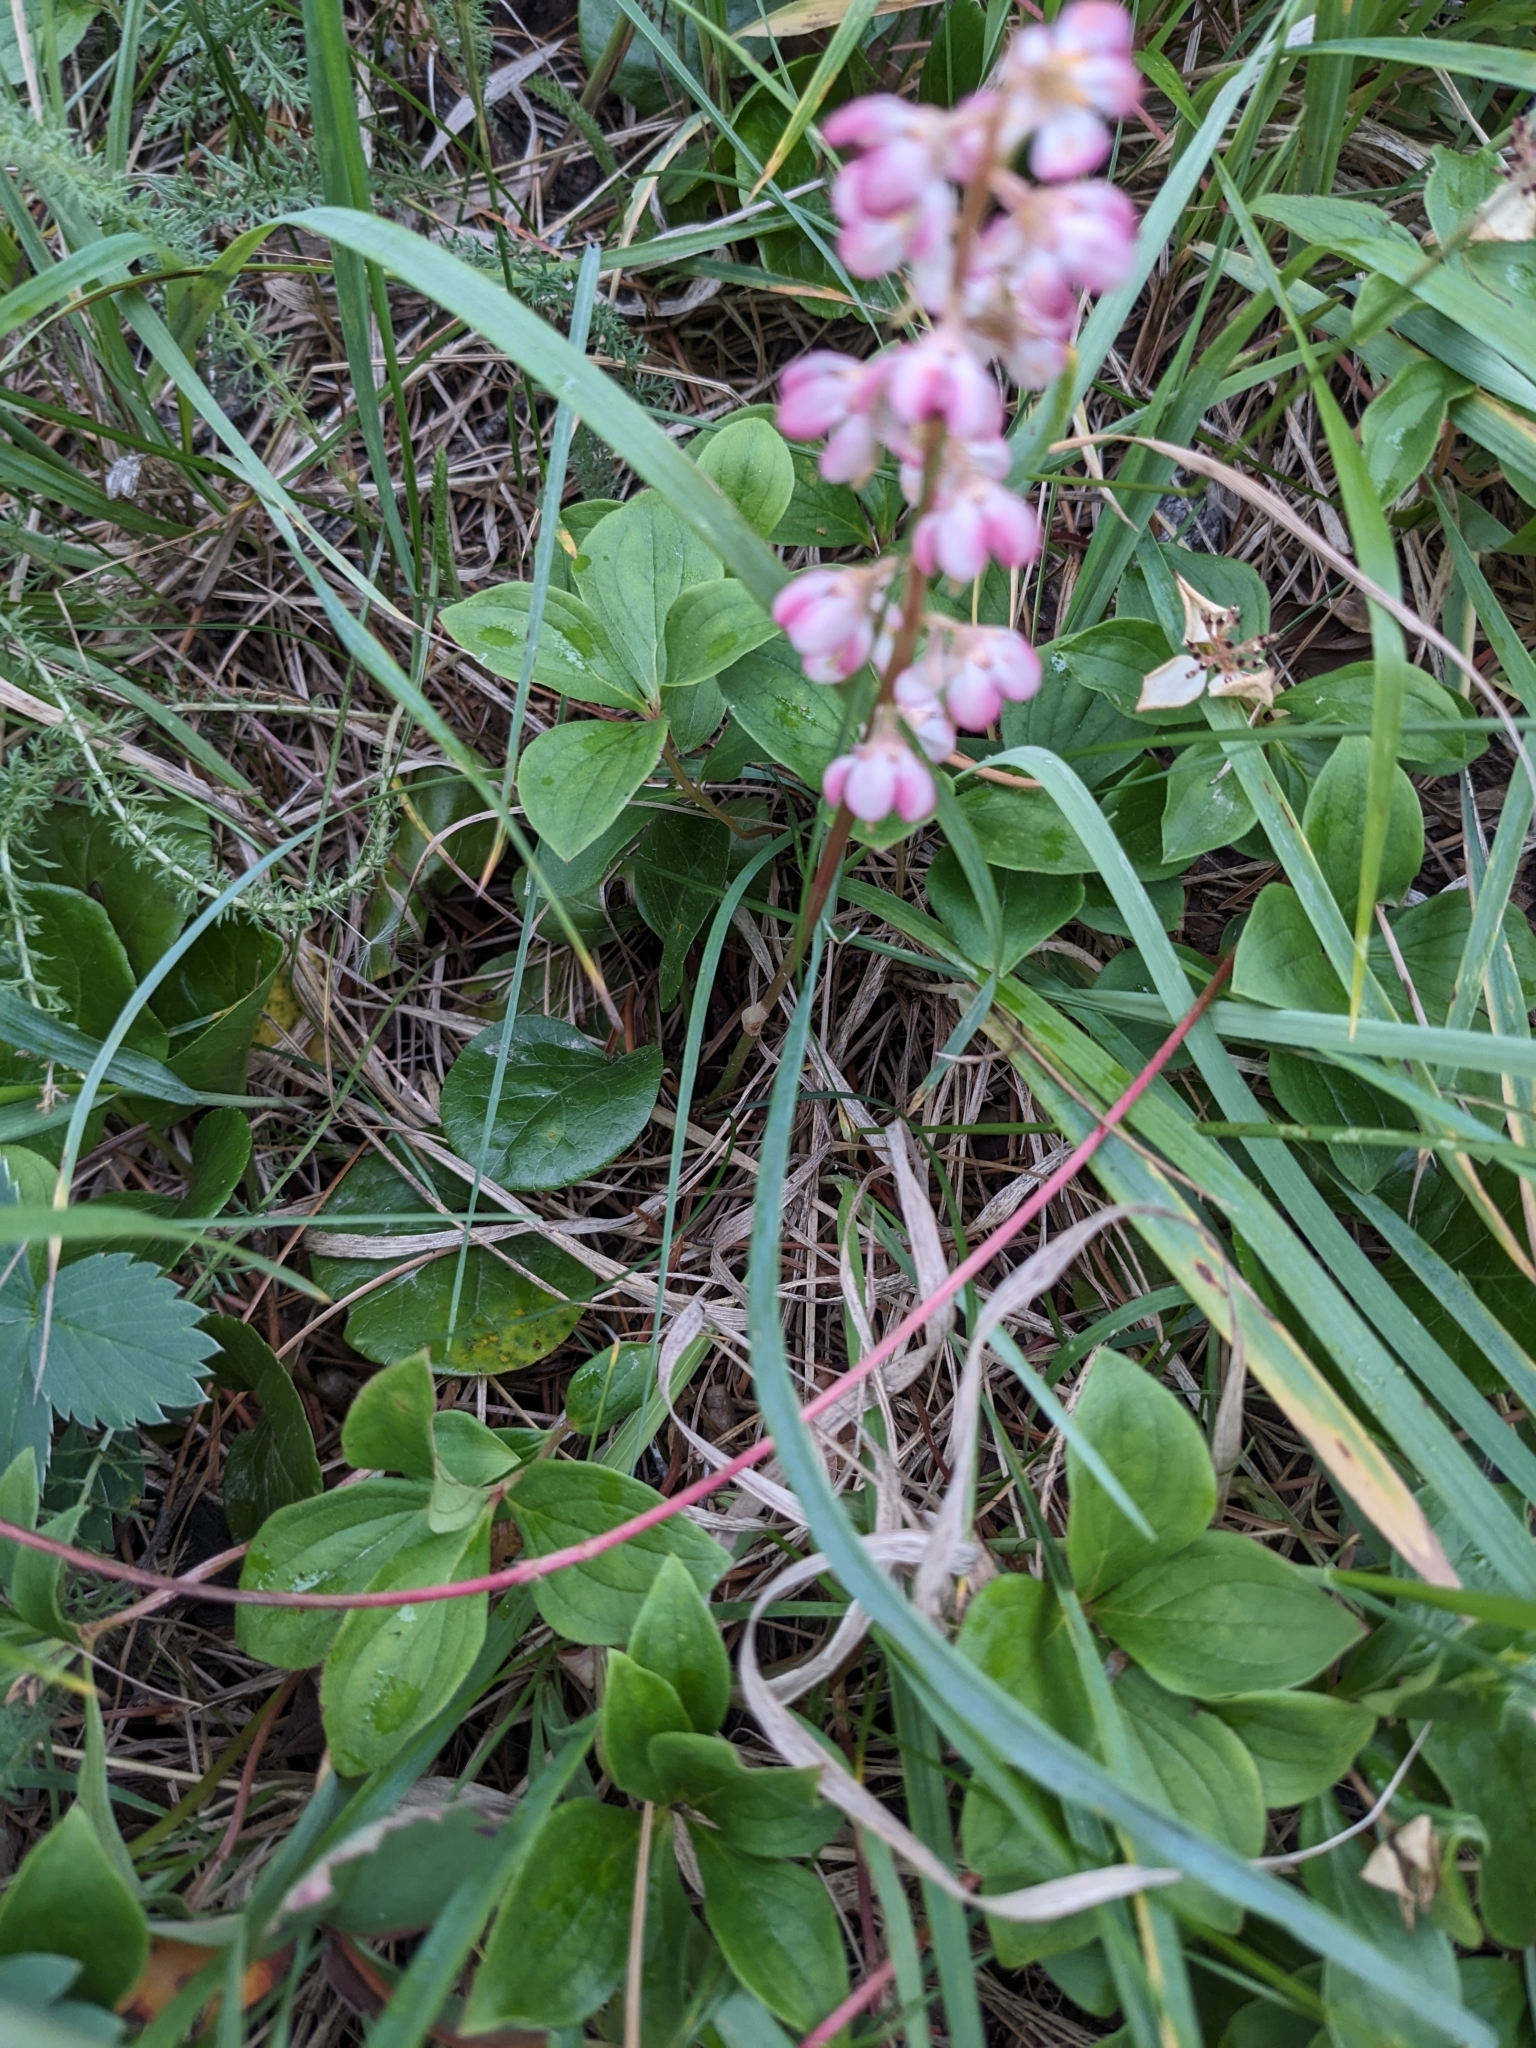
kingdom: Plantae
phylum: Tracheophyta
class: Magnoliopsida
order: Ericales
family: Ericaceae
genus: Pyrola
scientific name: Pyrola asarifolia
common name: Bog wintergreen
